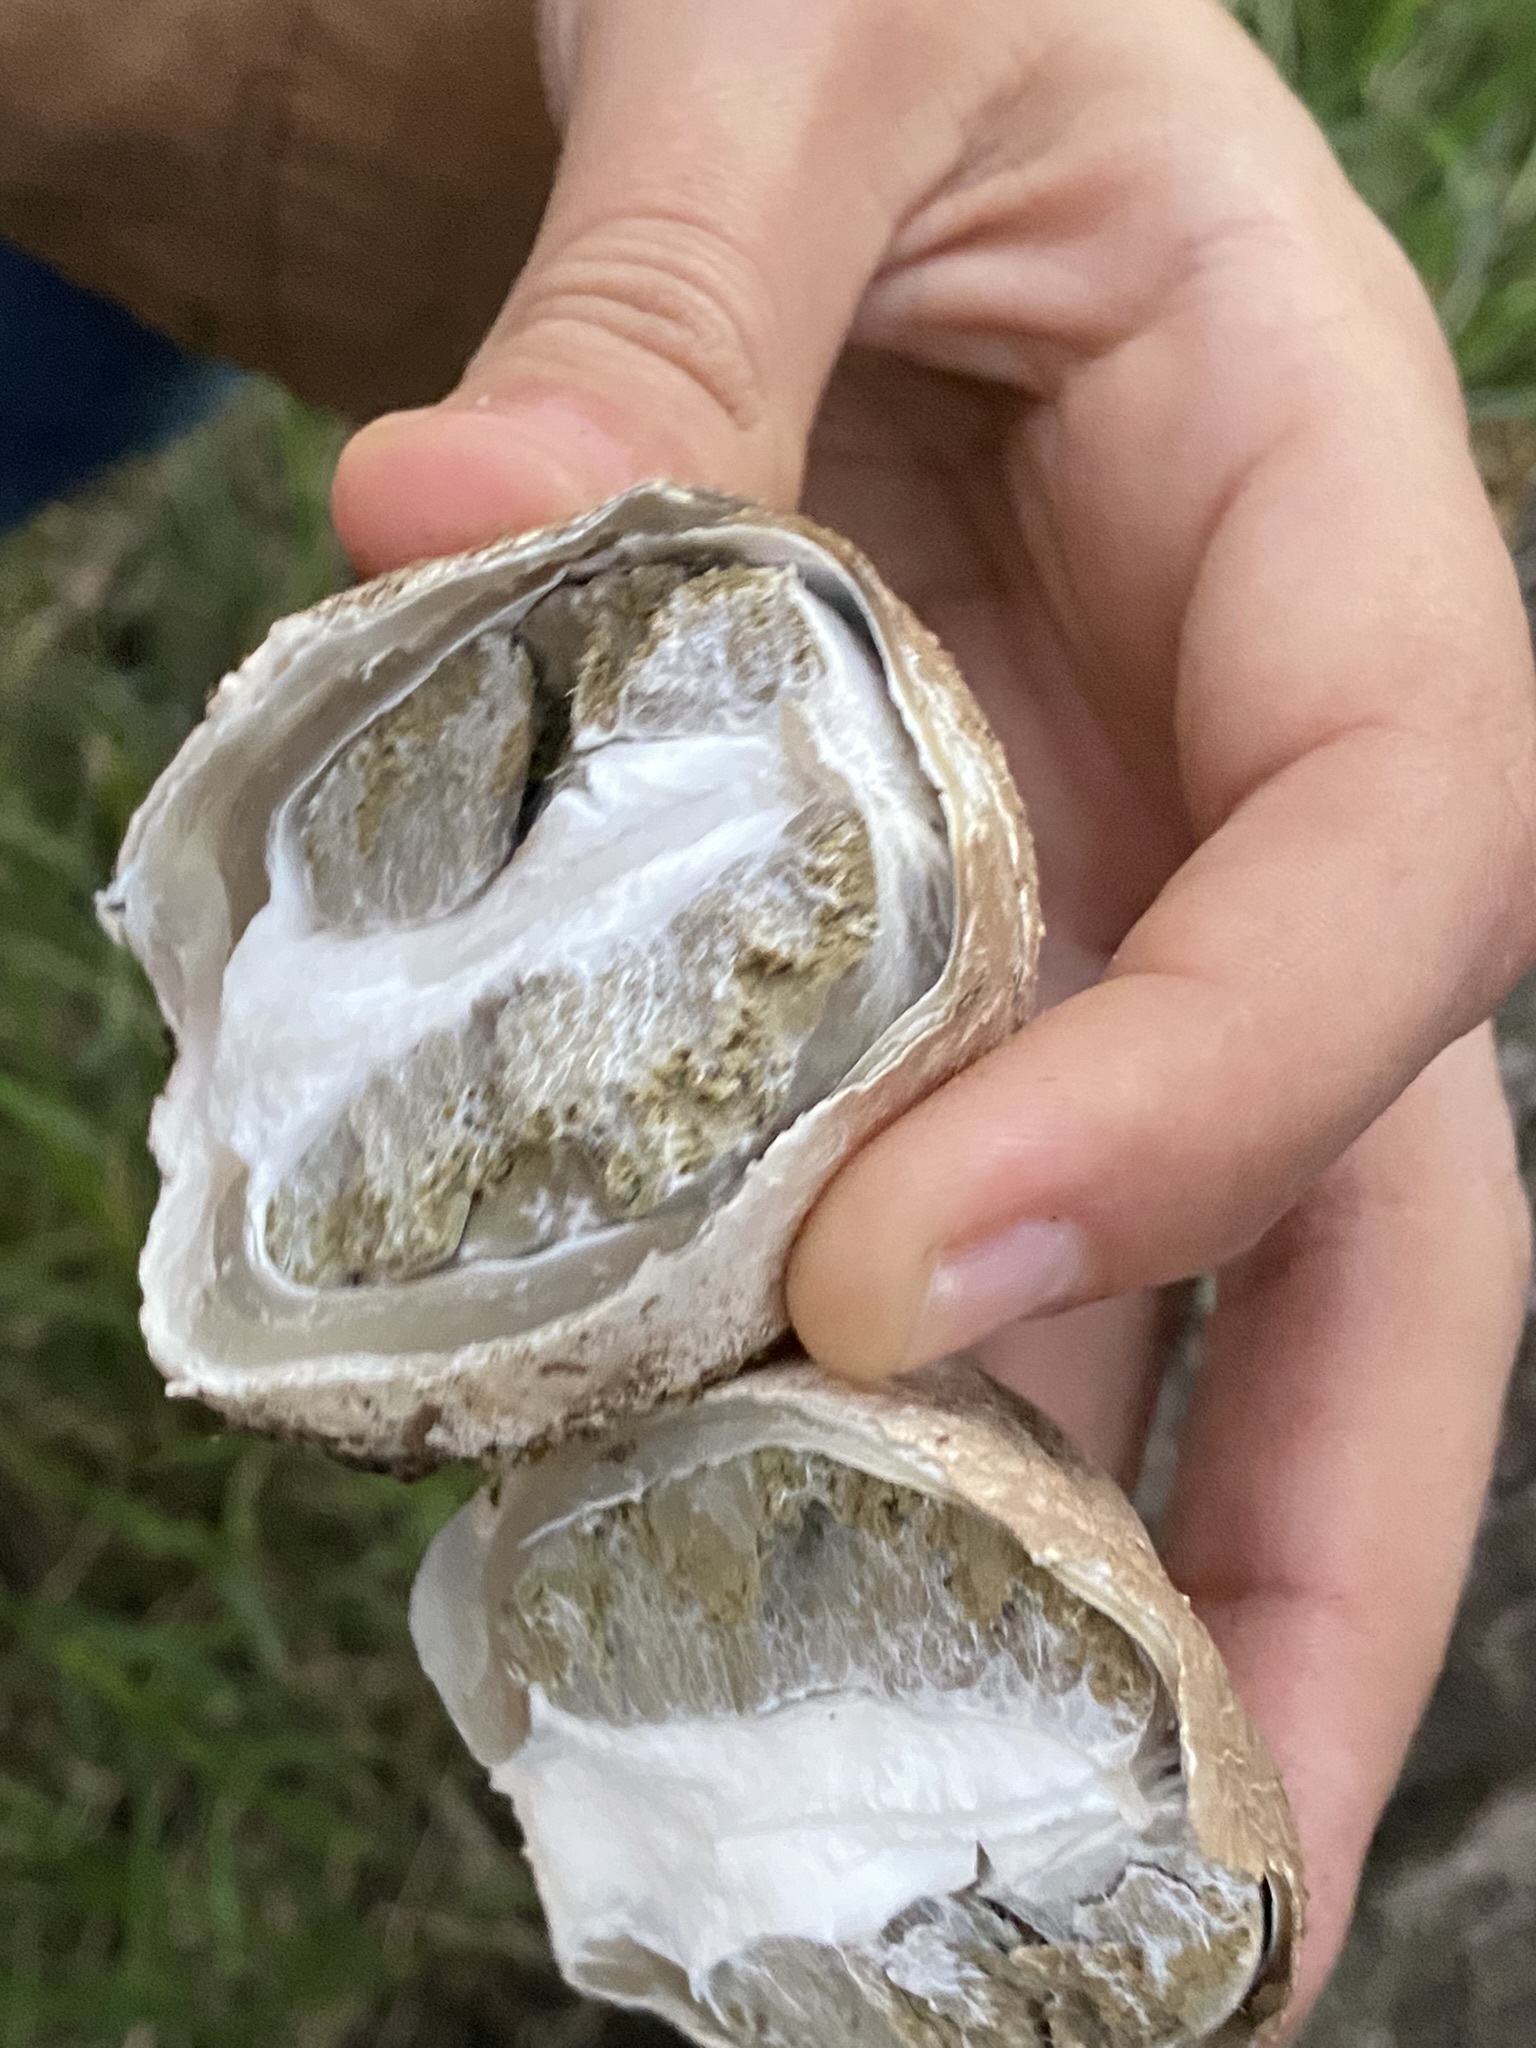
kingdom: Fungi
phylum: Basidiomycota
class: Agaricomycetes
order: Phallales
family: Phallaceae
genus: Itajahya
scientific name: Itajahya galericulata
